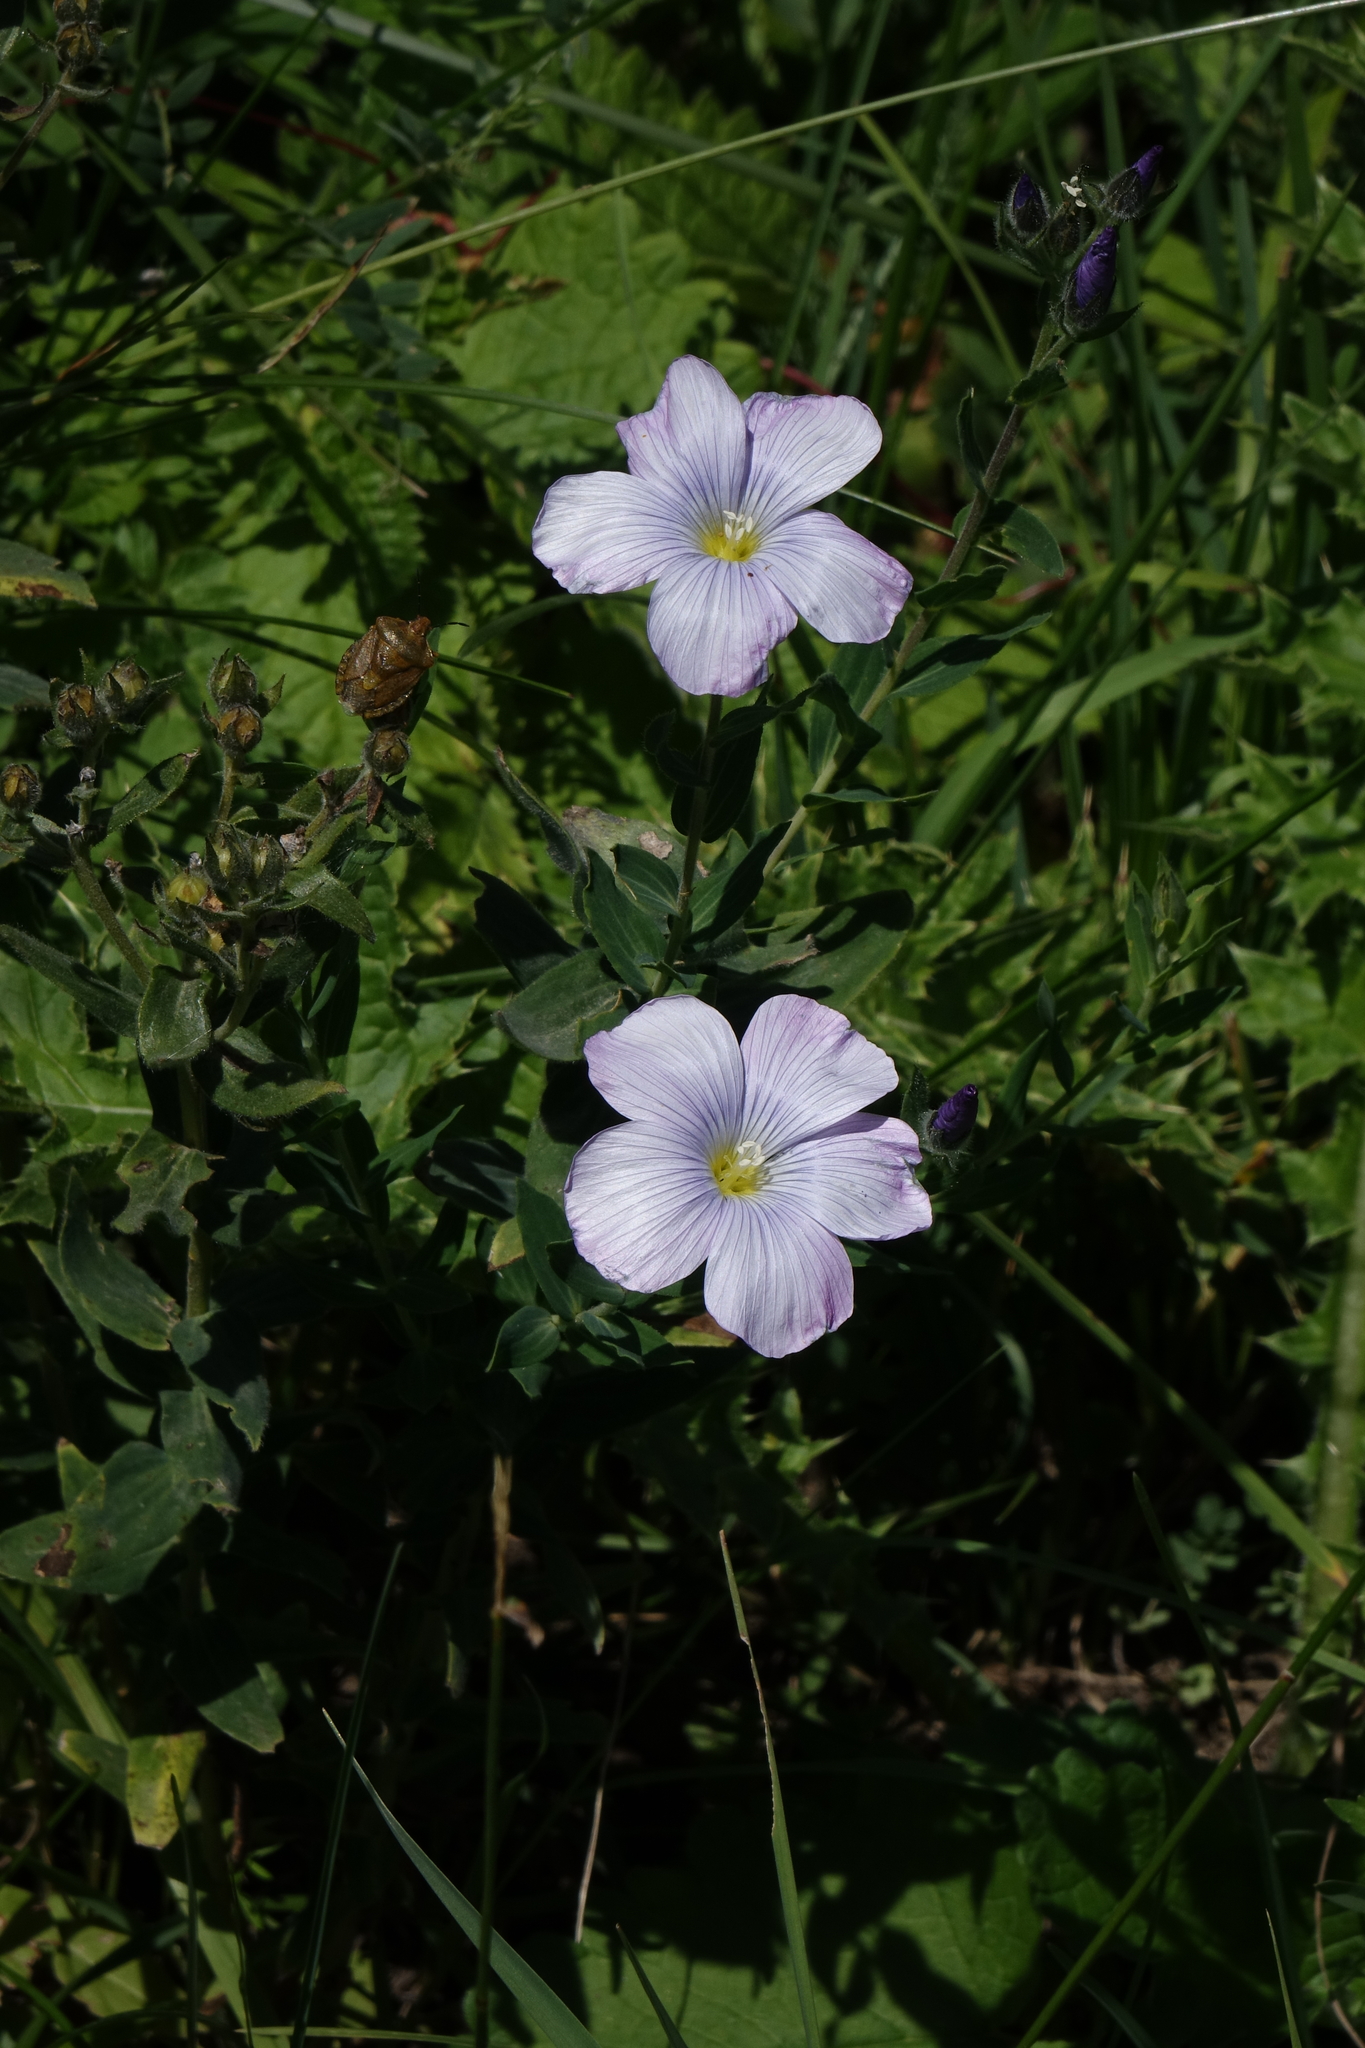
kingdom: Plantae
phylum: Tracheophyta
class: Magnoliopsida
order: Malpighiales
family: Linaceae
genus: Linum
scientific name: Linum hypericifolium
